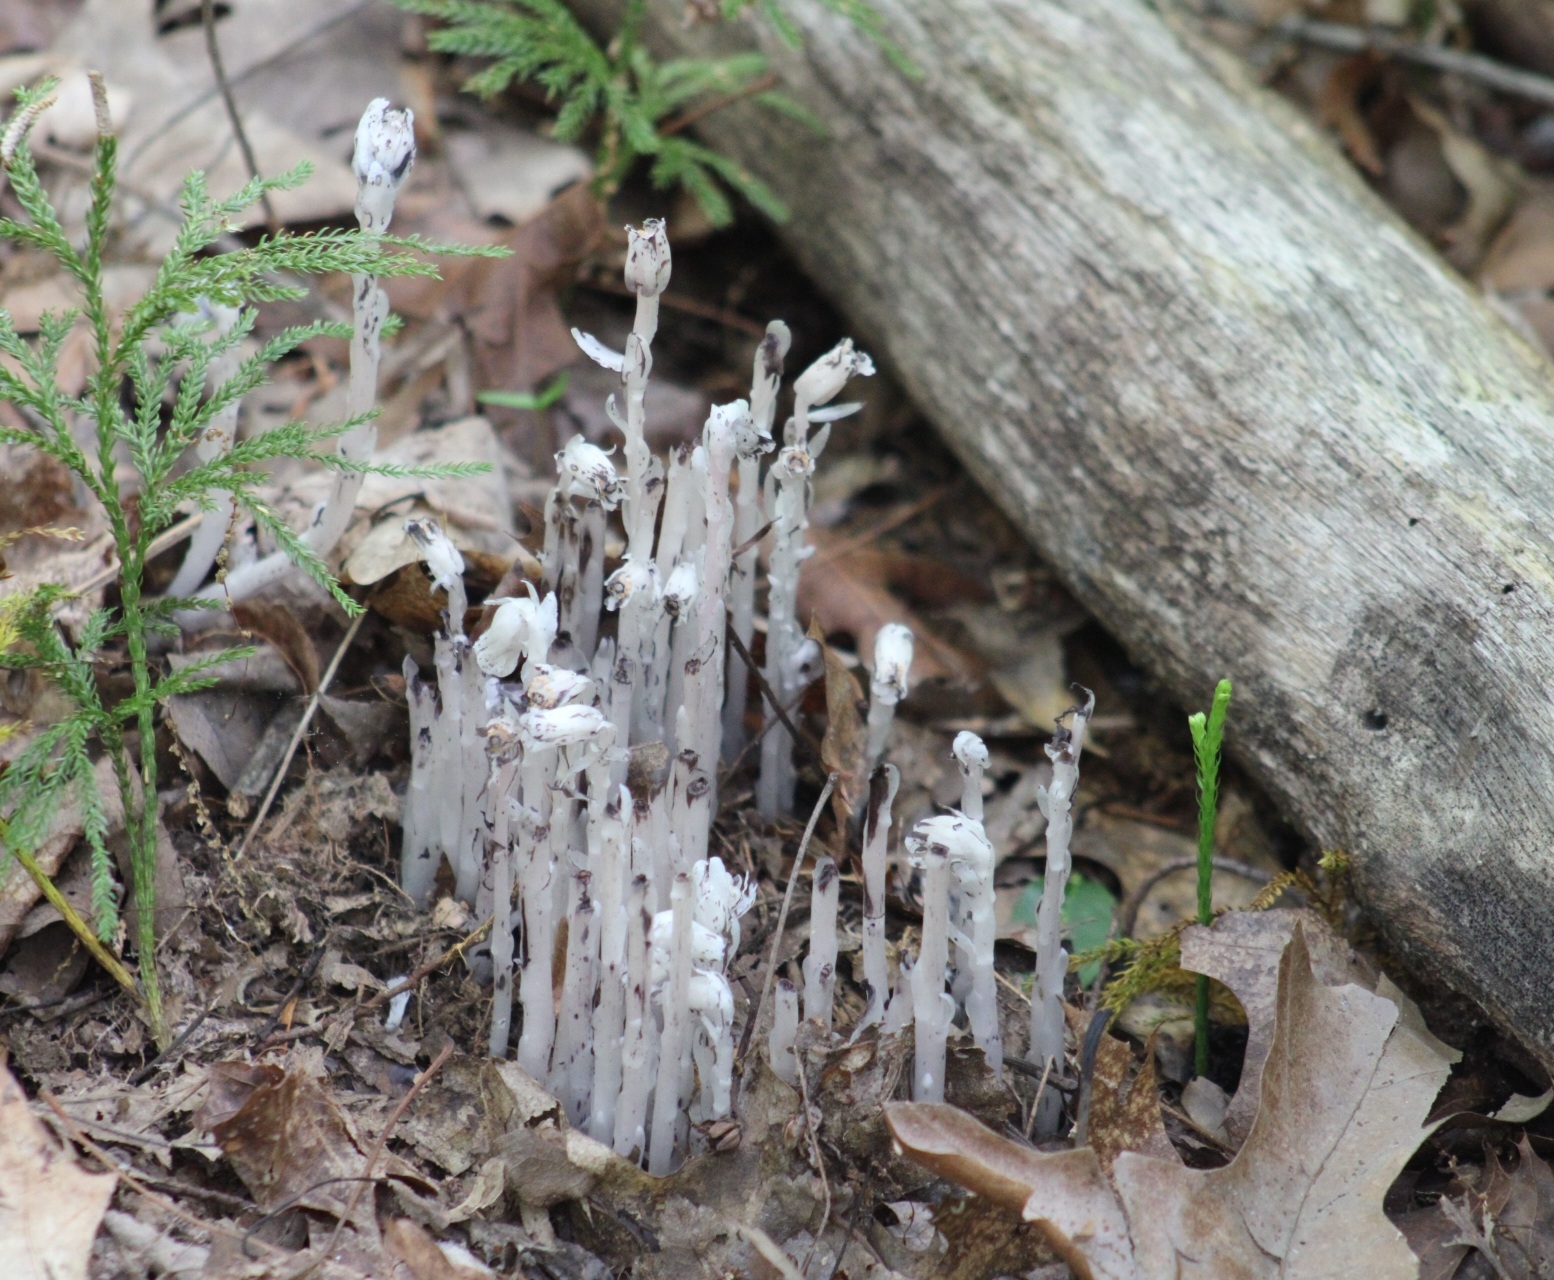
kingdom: Plantae
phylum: Tracheophyta
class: Magnoliopsida
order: Ericales
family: Ericaceae
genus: Monotropa
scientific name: Monotropa uniflora
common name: Convulsion root
